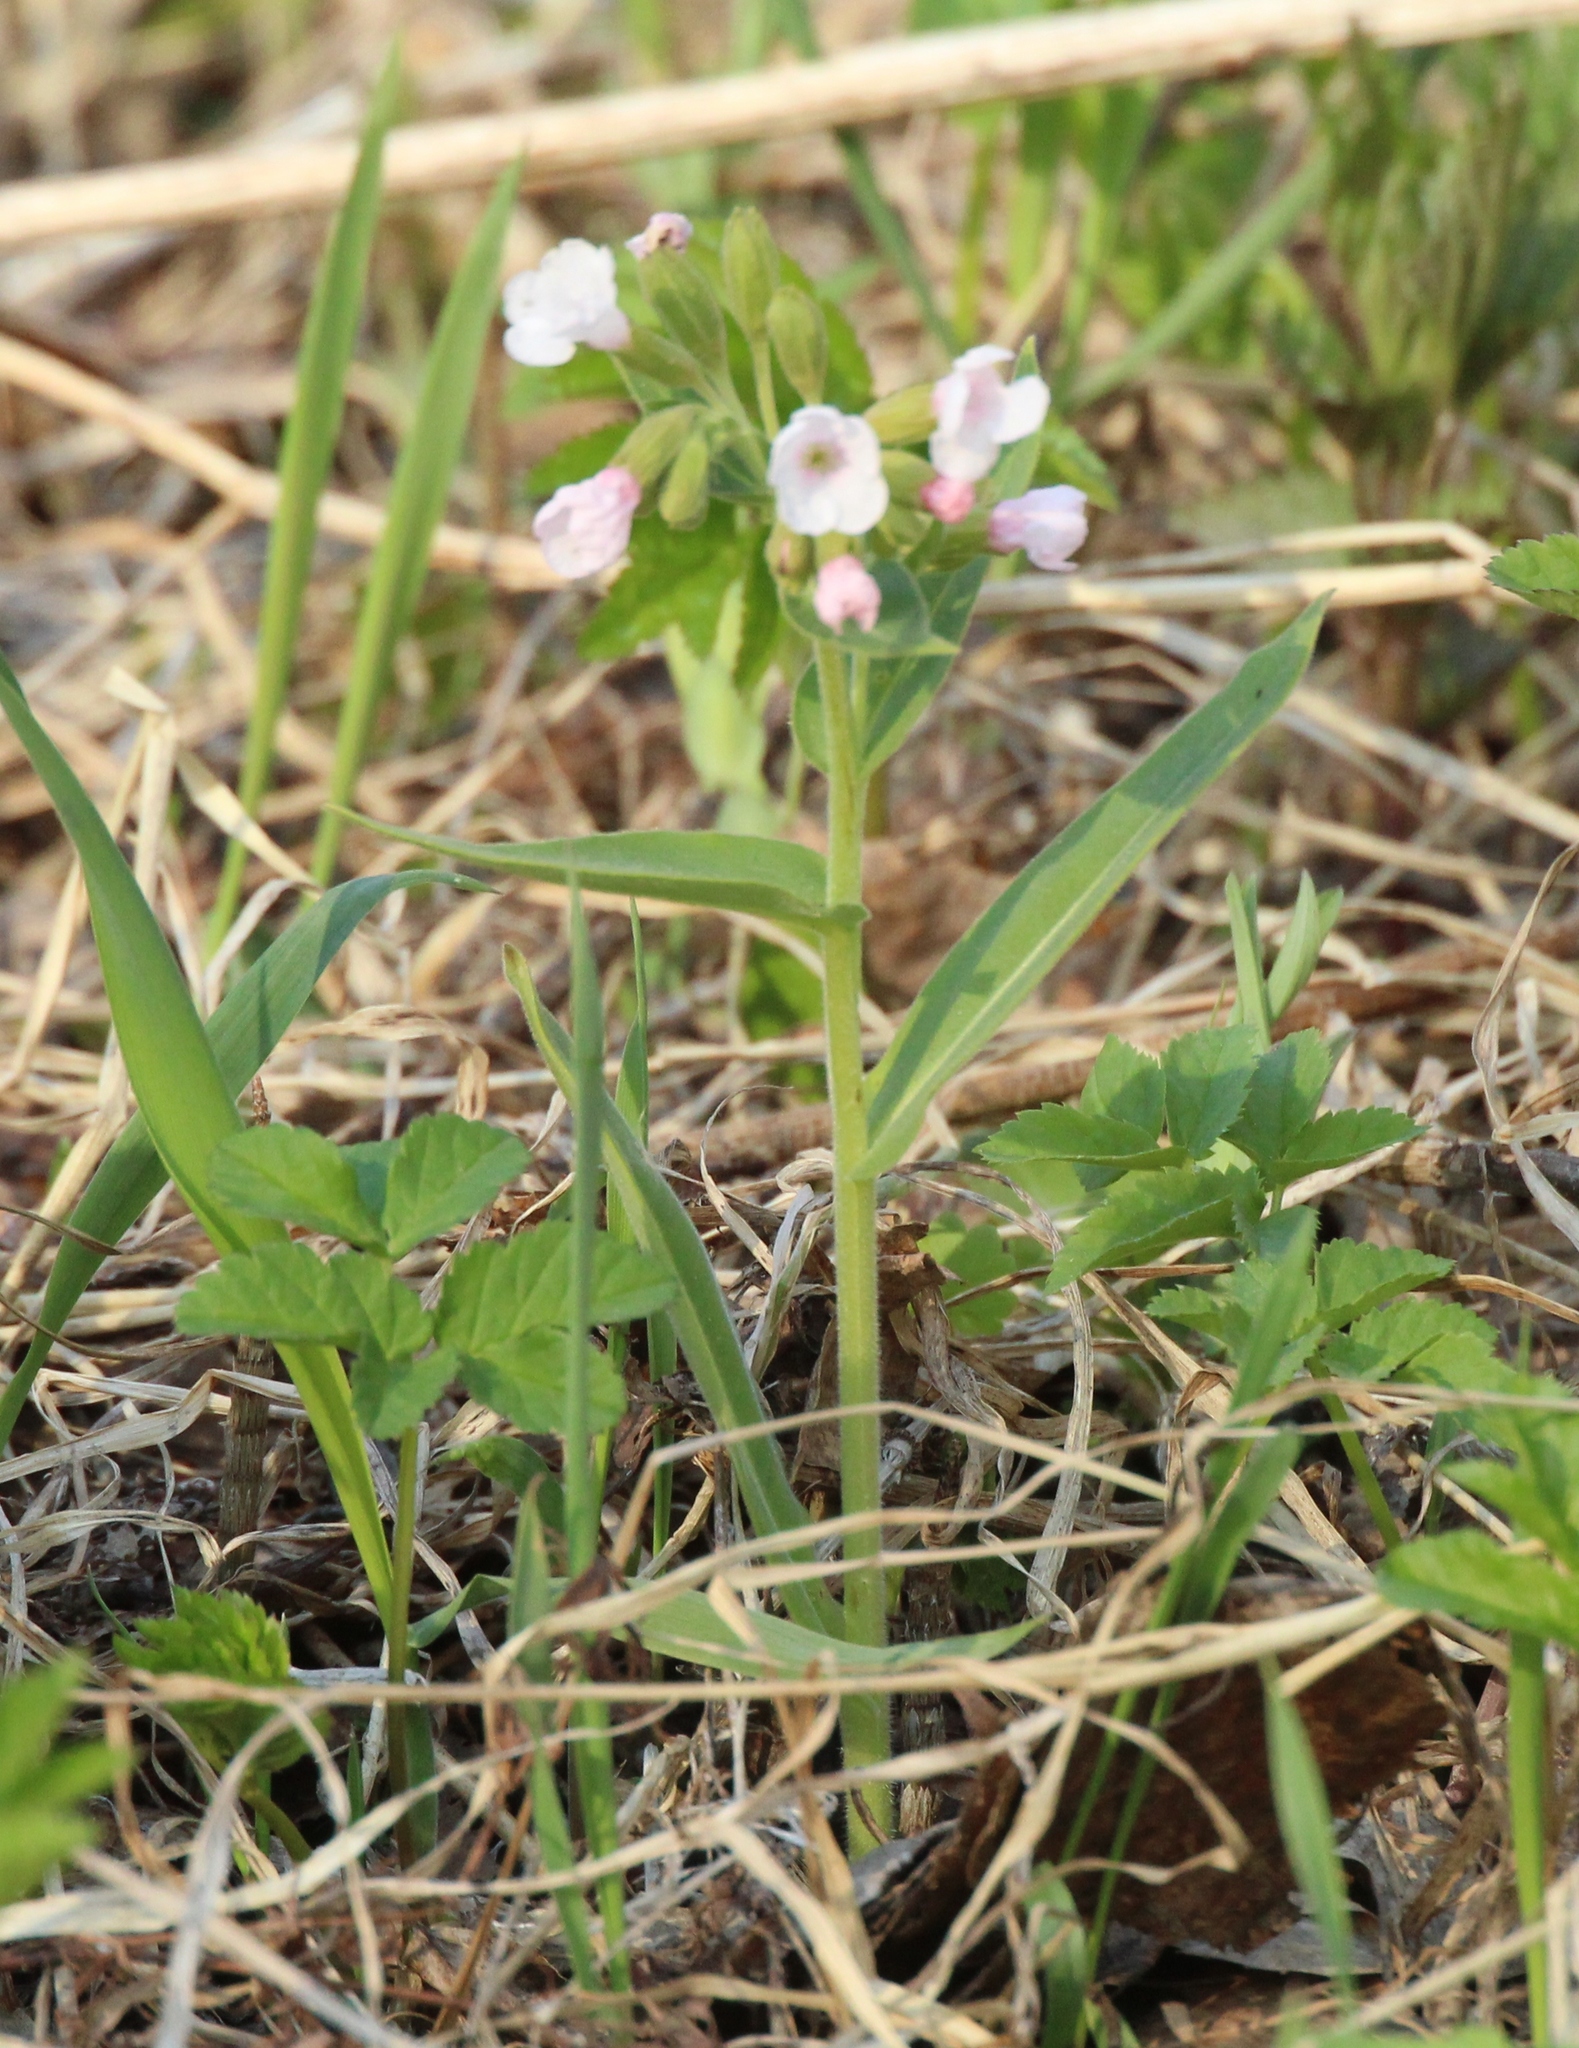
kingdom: Plantae
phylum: Tracheophyta
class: Magnoliopsida
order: Boraginales
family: Boraginaceae
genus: Pulmonaria
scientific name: Pulmonaria mollis
